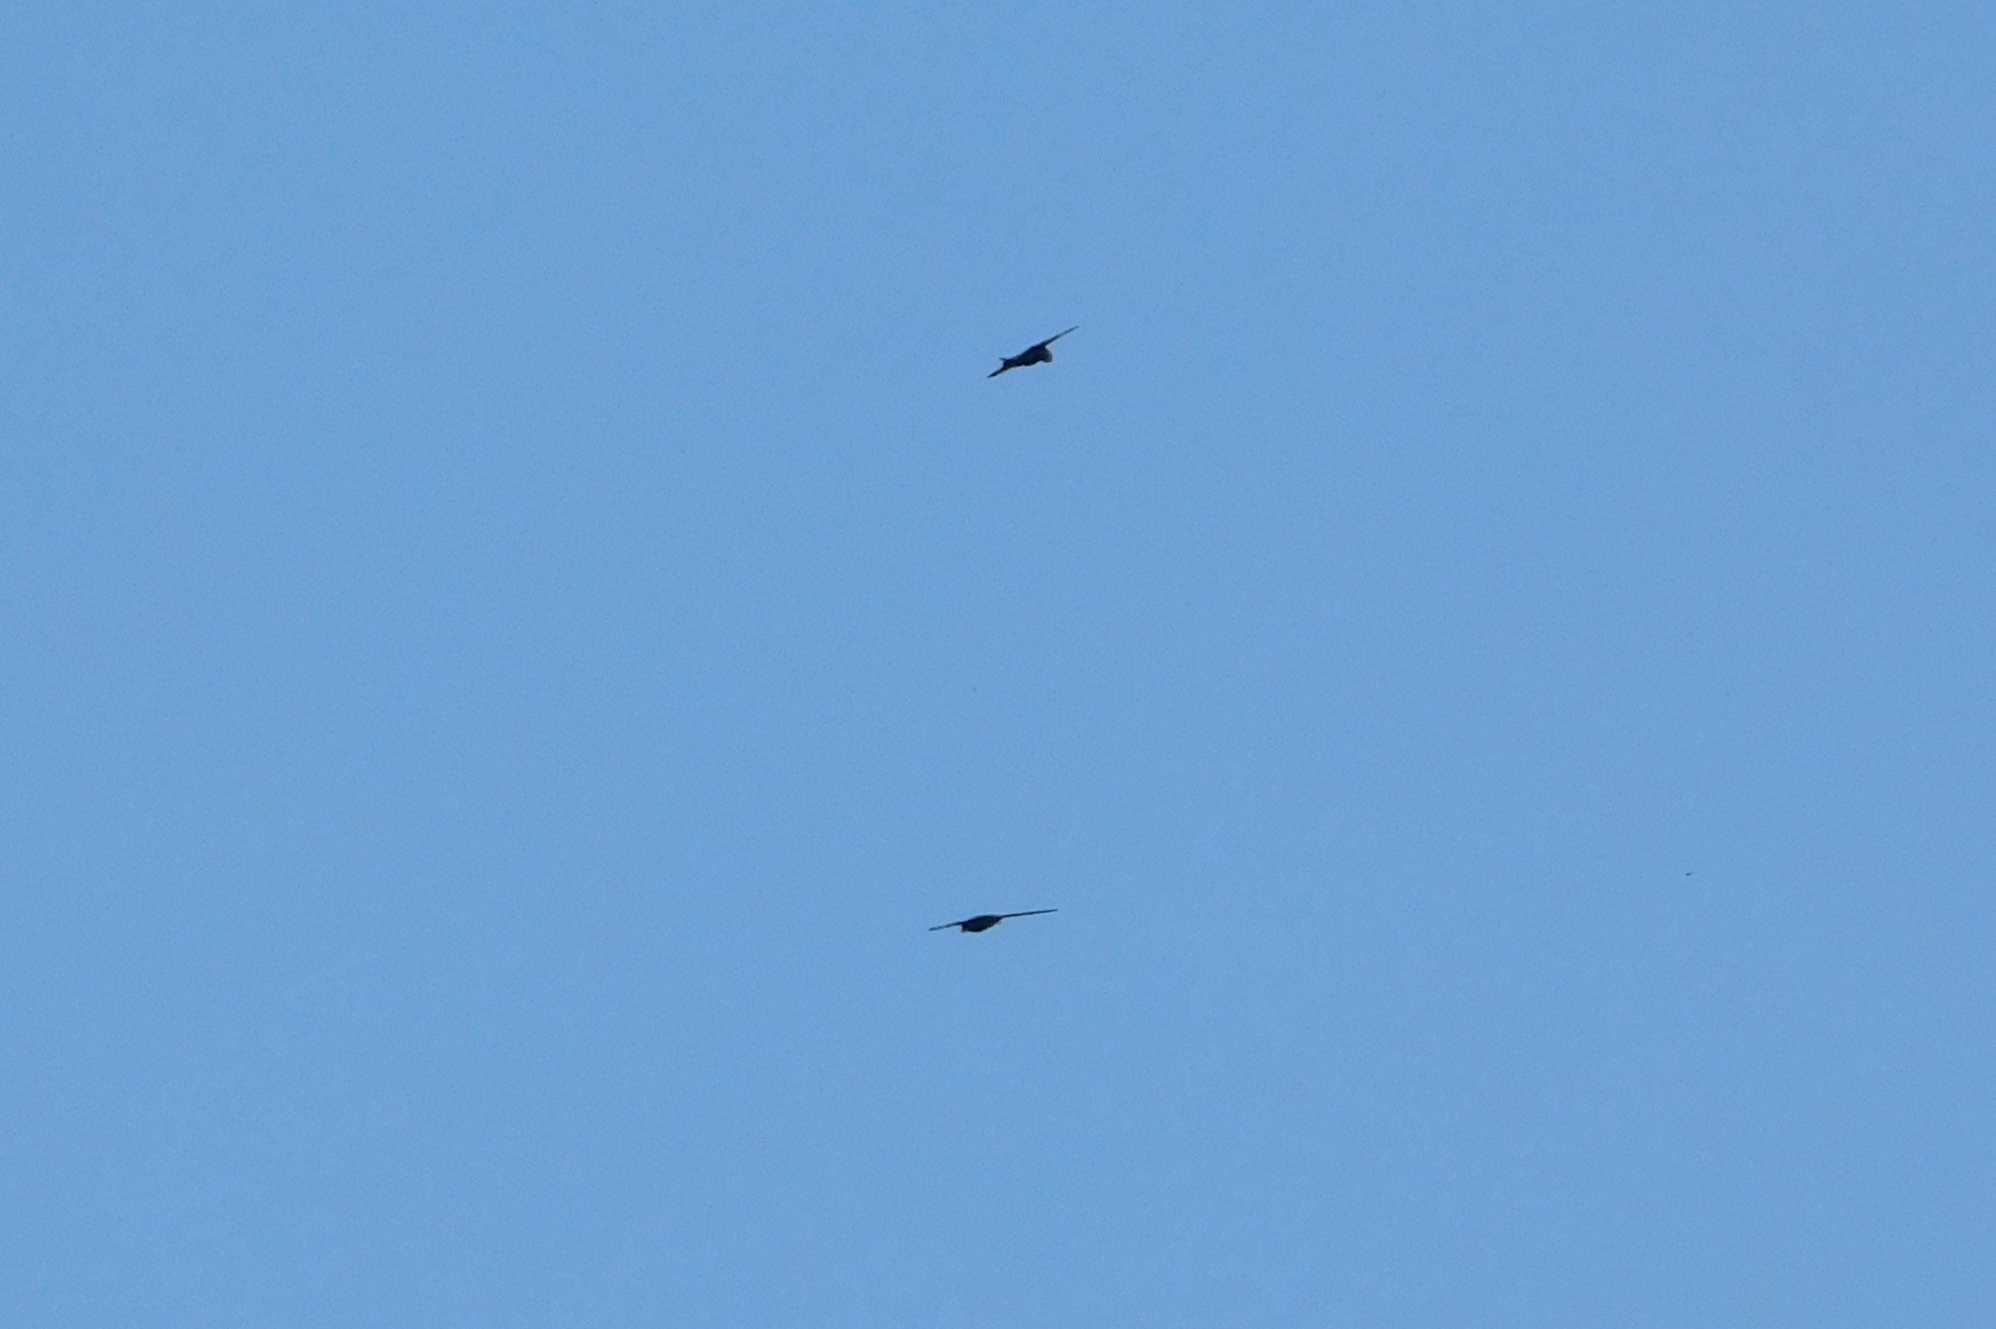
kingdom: Animalia
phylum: Chordata
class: Aves
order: Apodiformes
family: Apodidae
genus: Apus
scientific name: Apus apus
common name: Common swift
